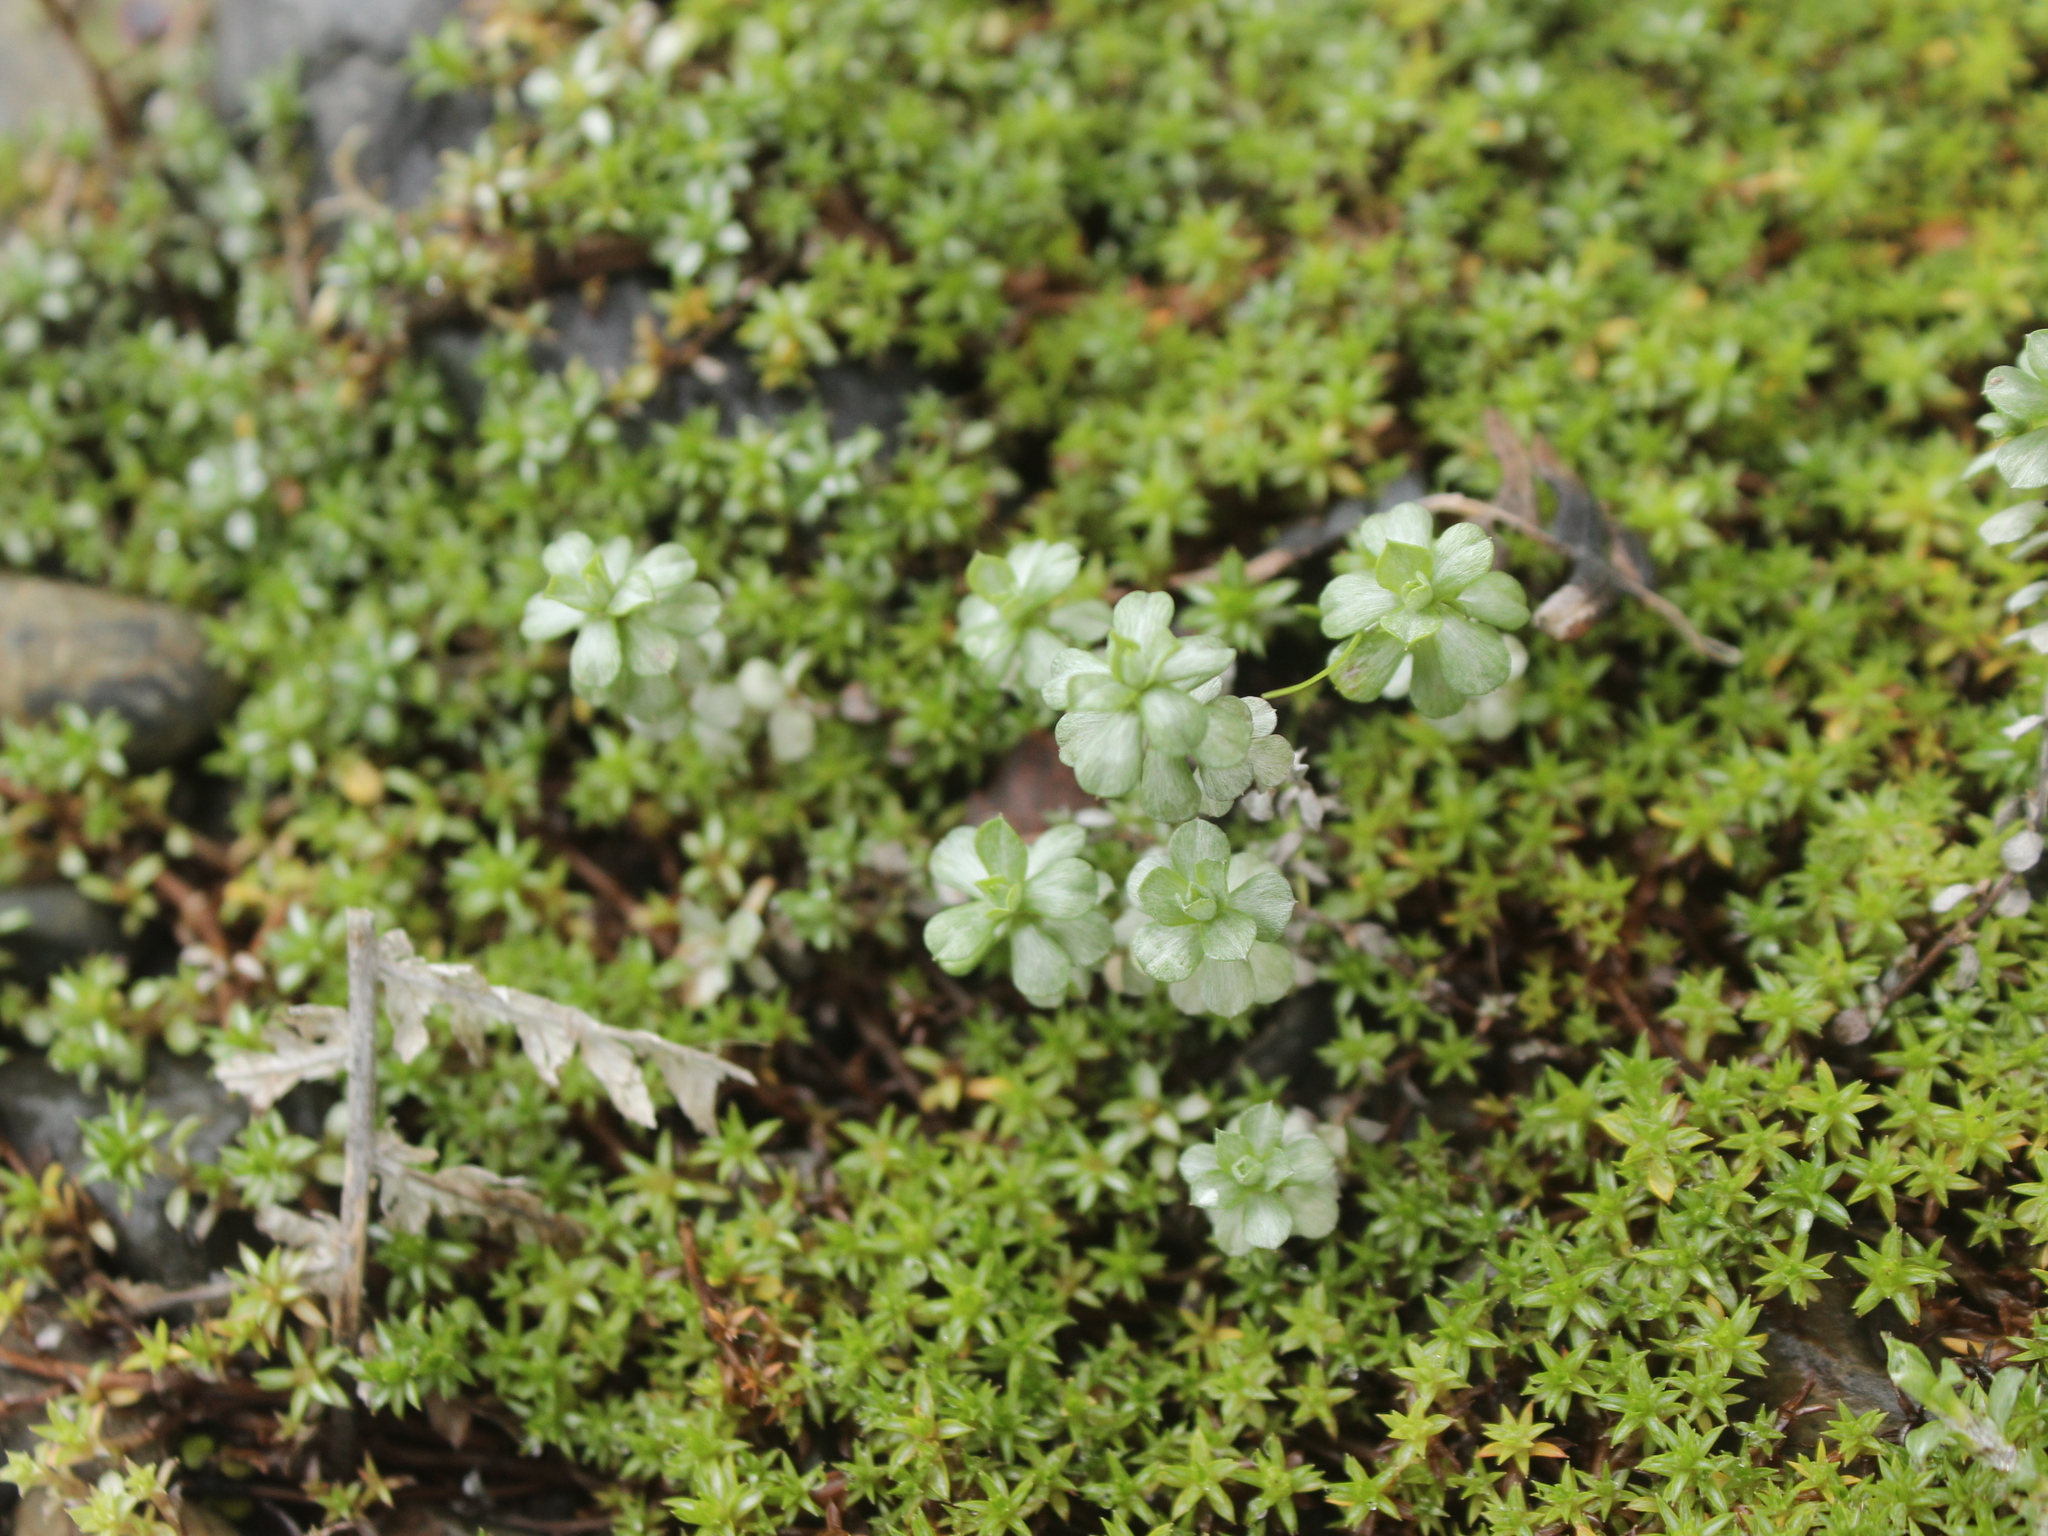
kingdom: Plantae
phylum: Tracheophyta
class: Magnoliopsida
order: Asterales
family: Asteraceae
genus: Anaphalioides
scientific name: Anaphalioides bellidioides
